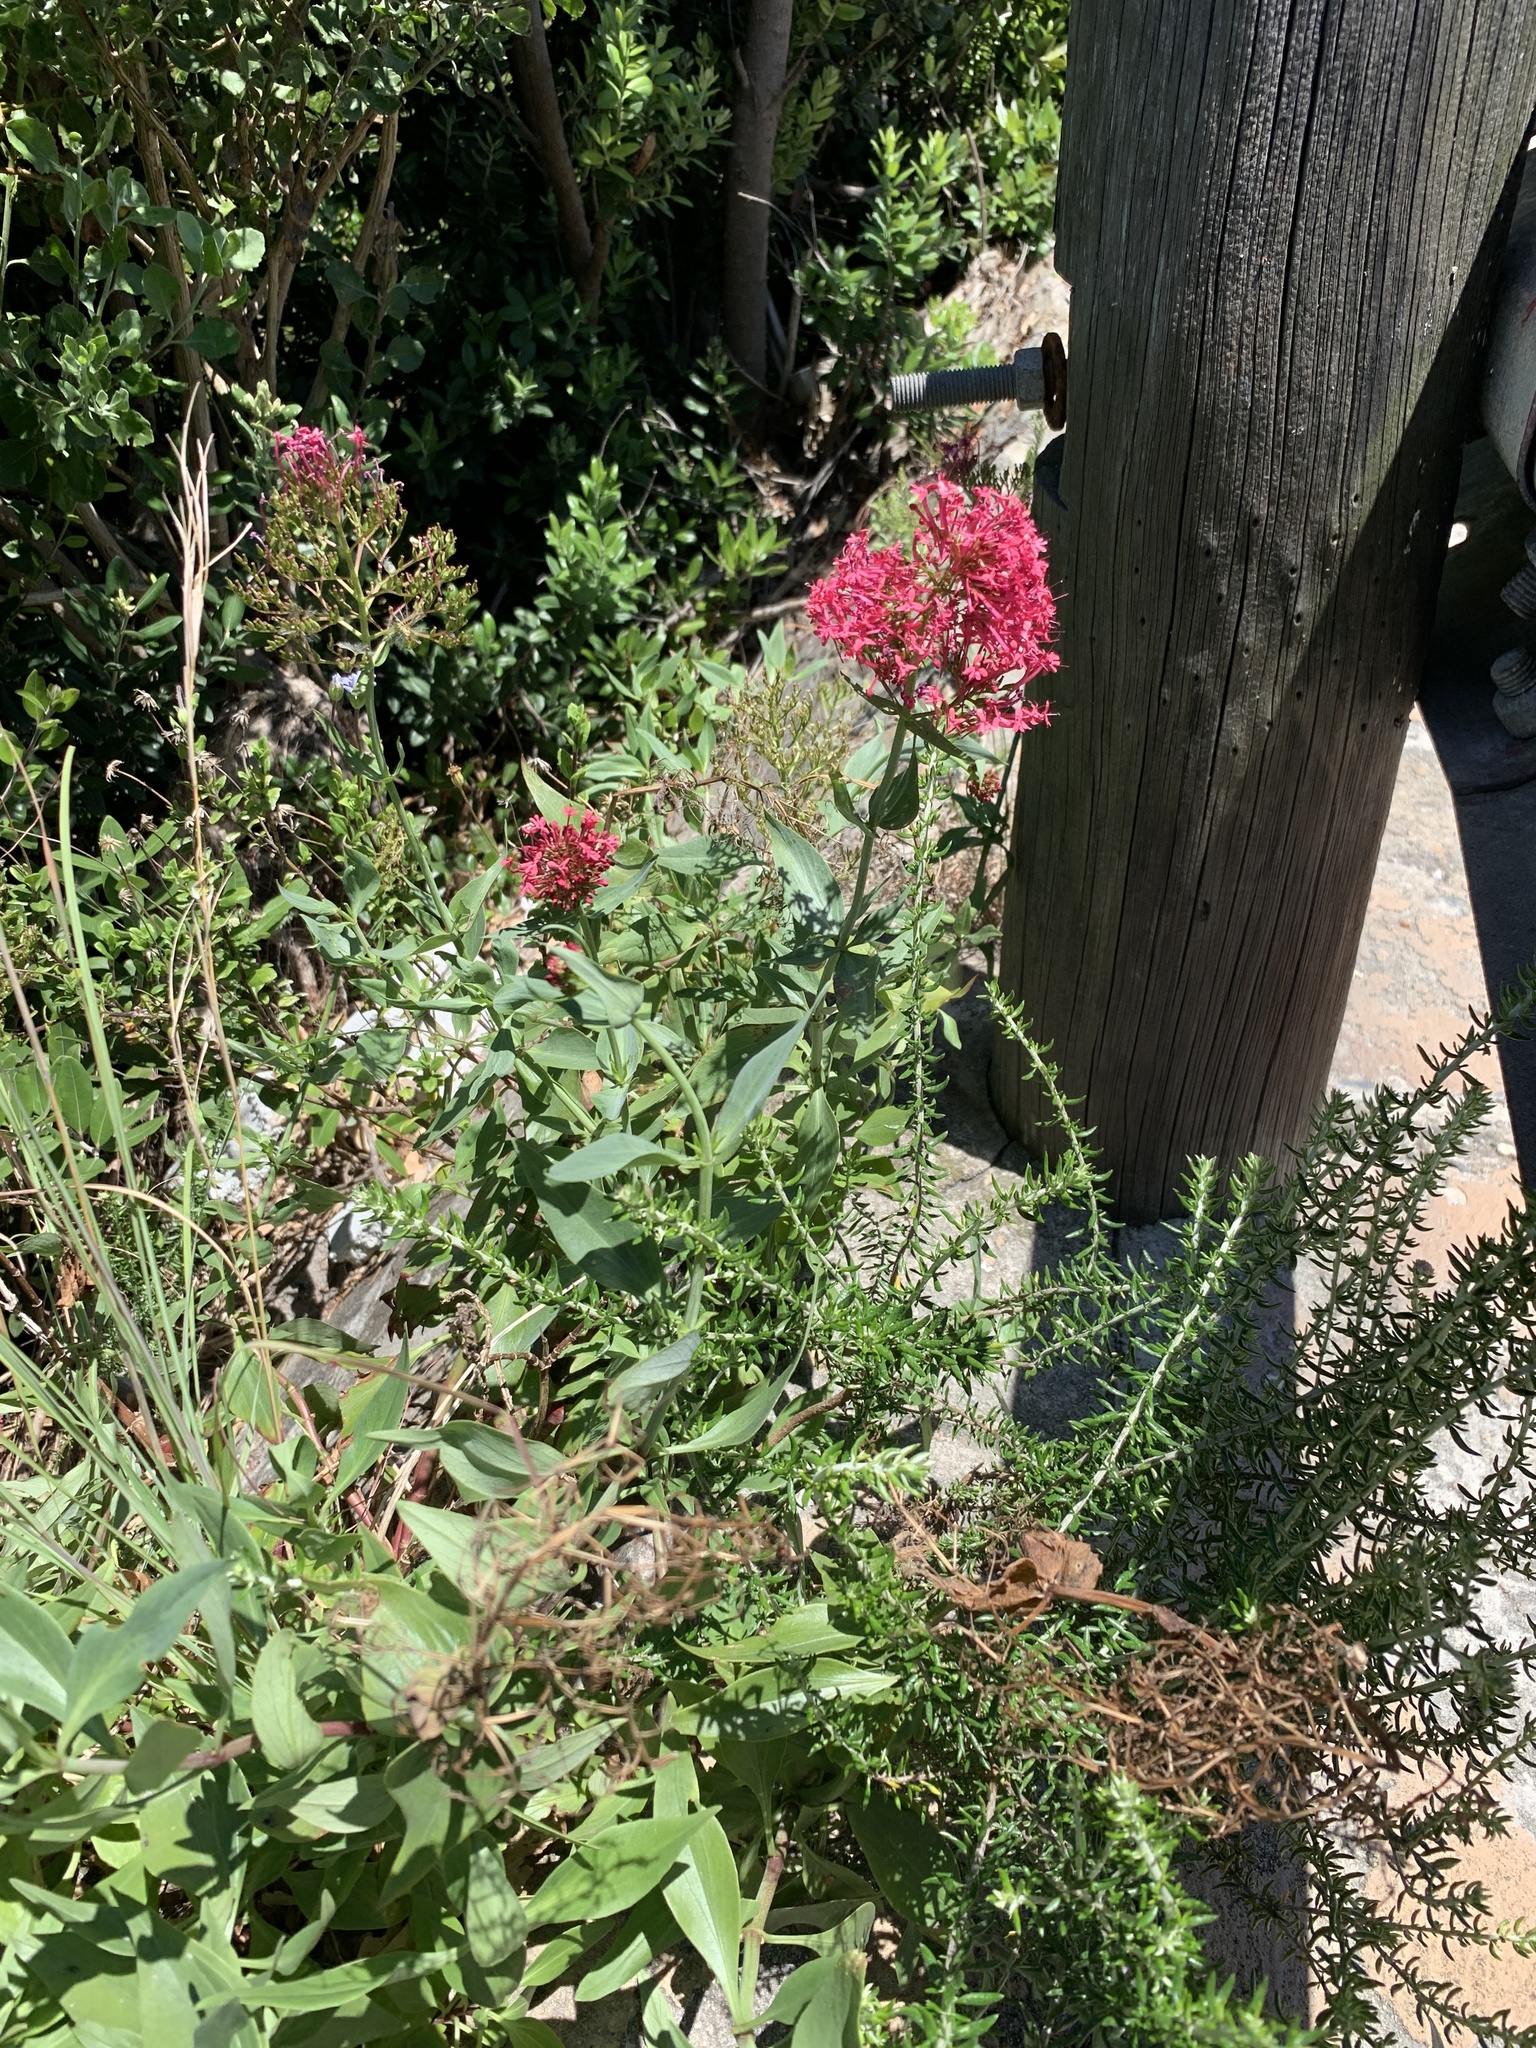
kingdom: Plantae
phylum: Tracheophyta
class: Magnoliopsida
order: Dipsacales
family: Caprifoliaceae
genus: Centranthus
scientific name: Centranthus ruber
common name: Red valerian
